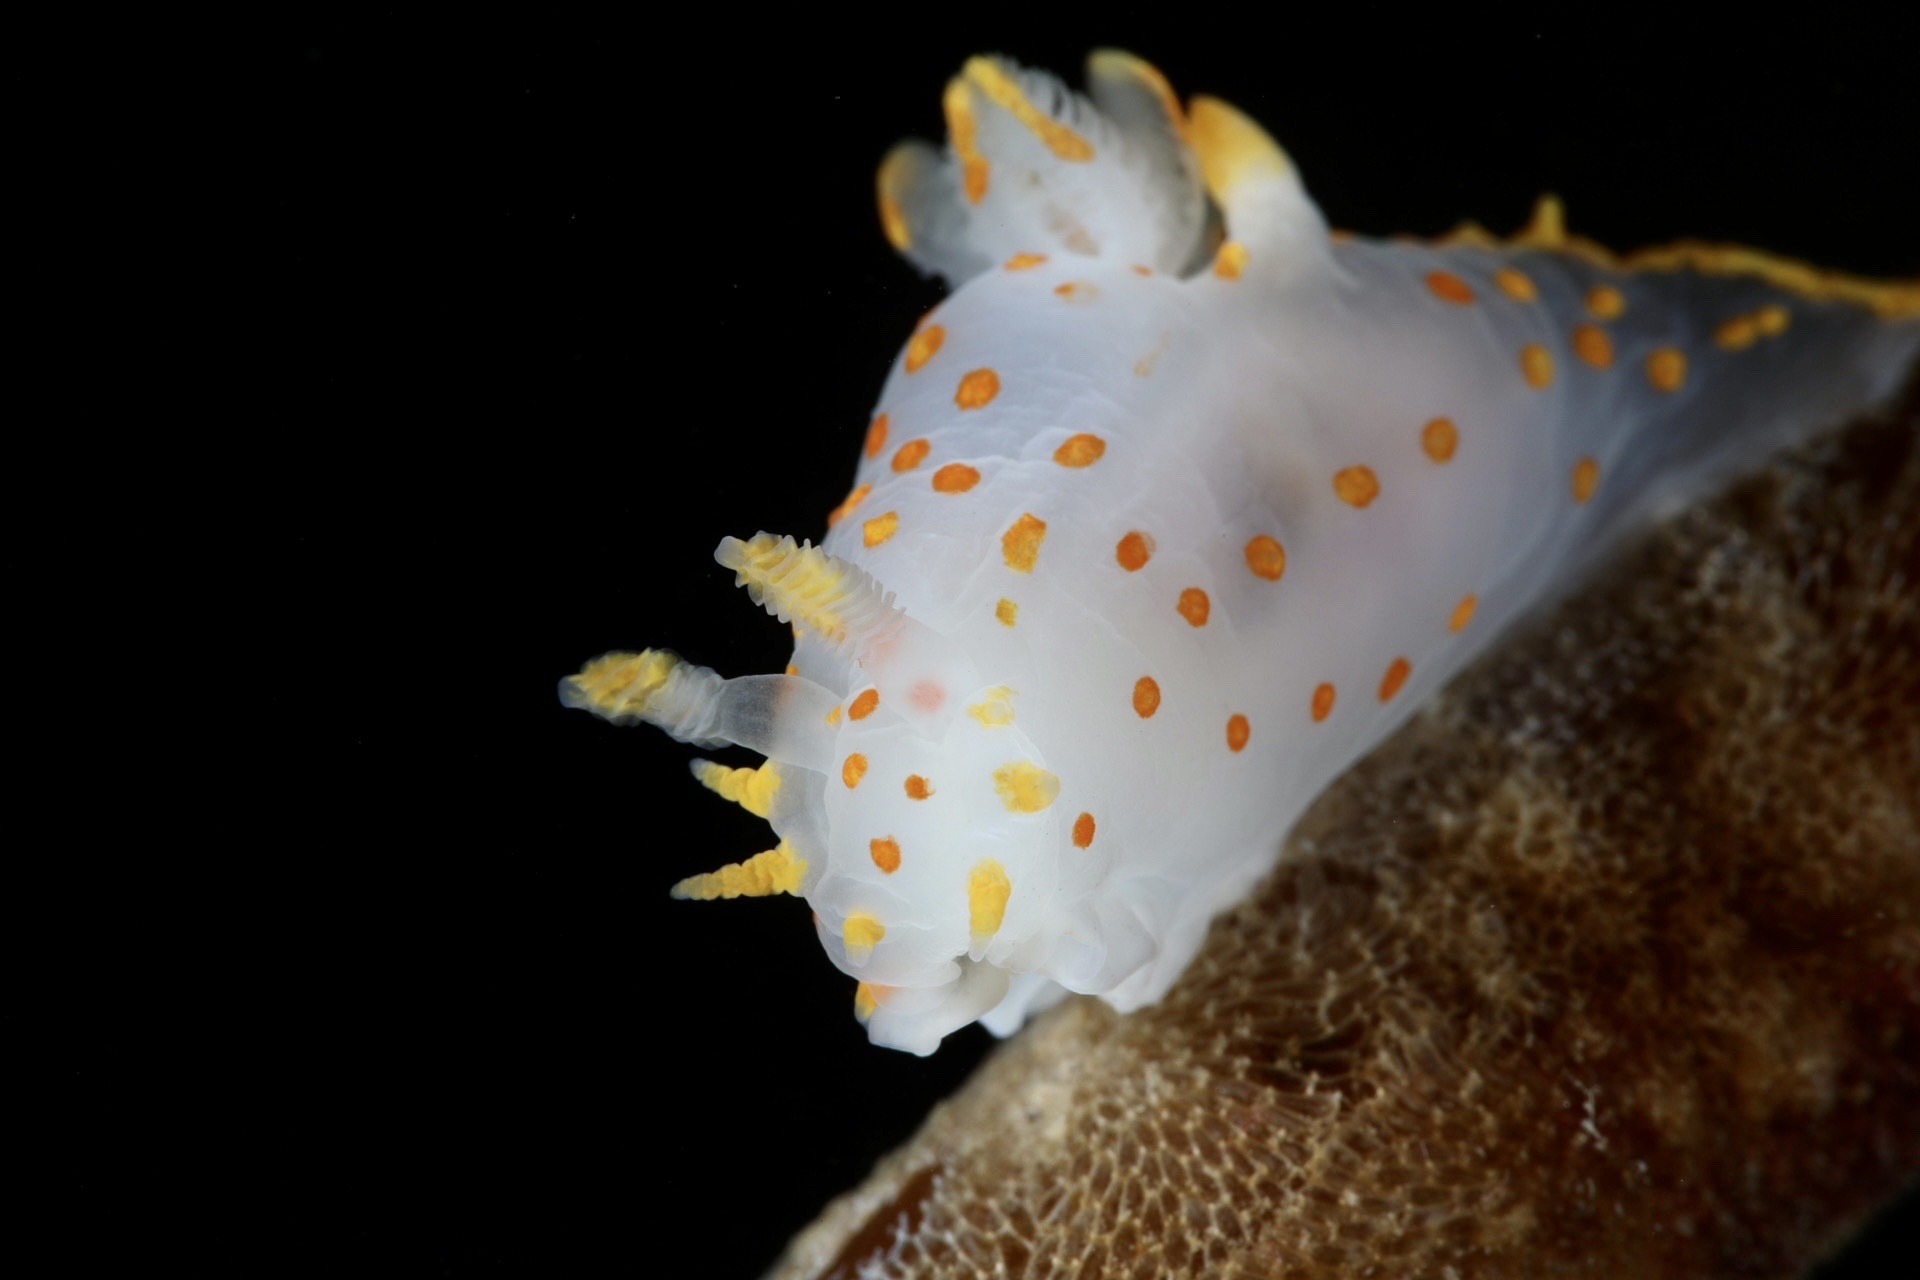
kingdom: Animalia
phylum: Mollusca
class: Gastropoda
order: Nudibranchia
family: Polyceridae
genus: Polycera
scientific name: Polycera quadrilineata
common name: Four-striped polycera
